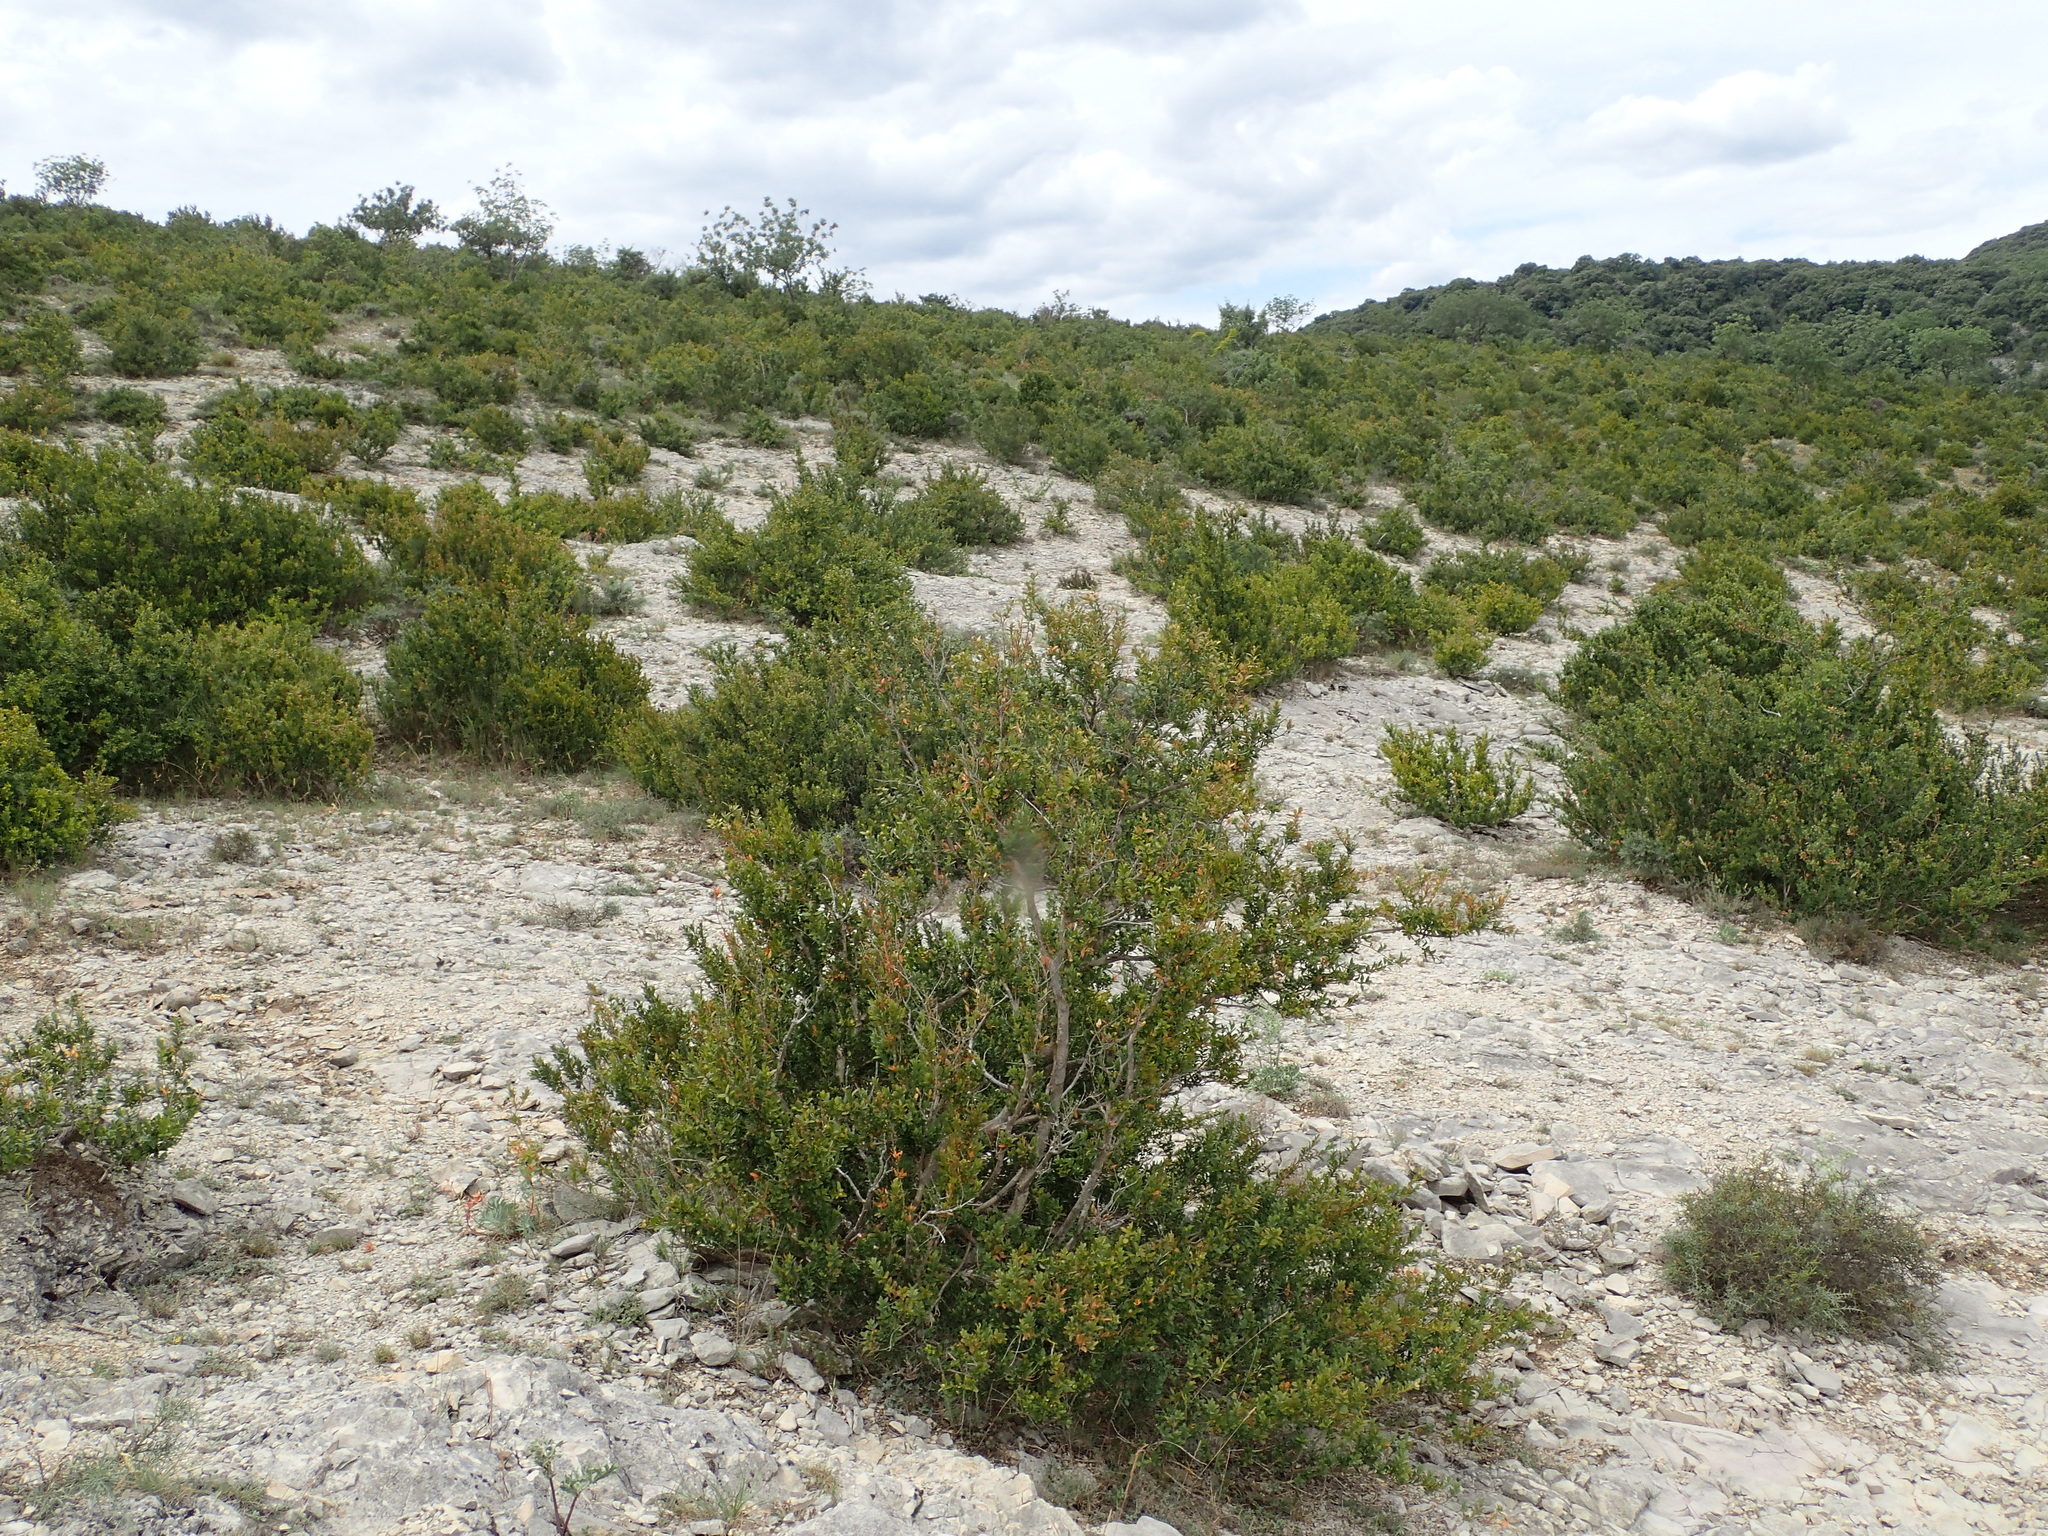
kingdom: Plantae
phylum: Tracheophyta
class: Magnoliopsida
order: Buxales
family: Buxaceae
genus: Buxus
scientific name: Buxus sempervirens
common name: Box
